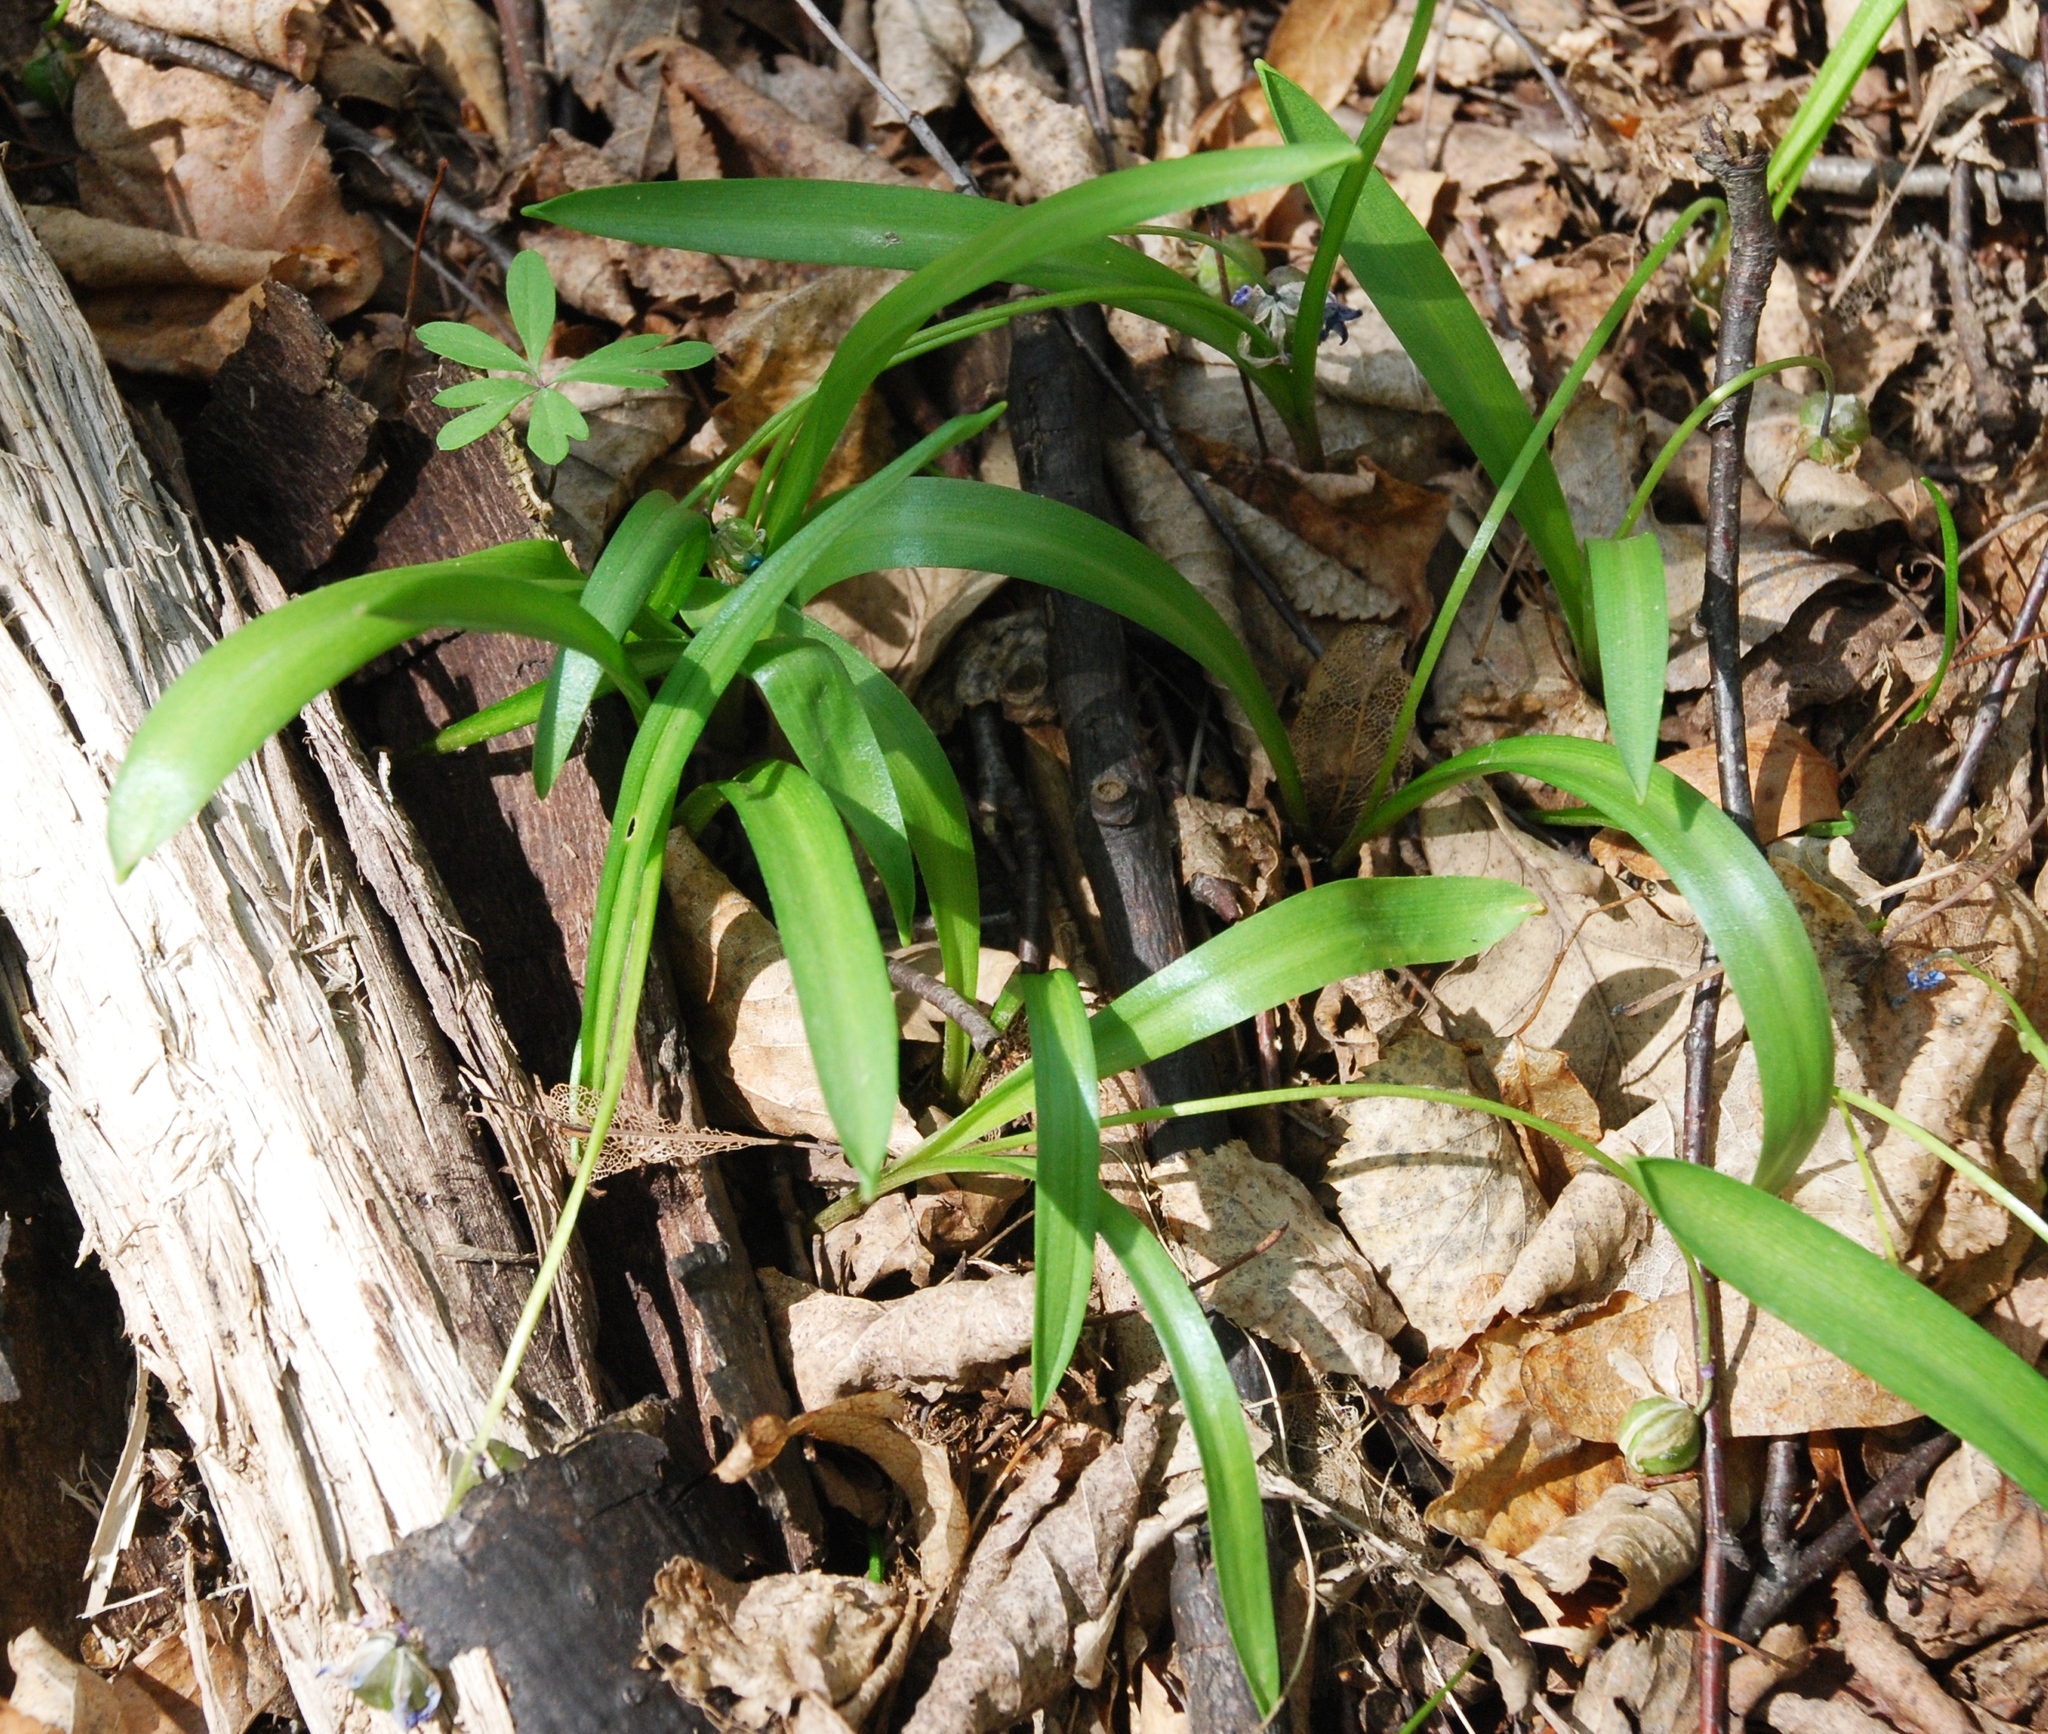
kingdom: Plantae
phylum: Tracheophyta
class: Liliopsida
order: Asparagales
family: Asparagaceae
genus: Scilla
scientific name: Scilla siberica
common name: Siberian squill
